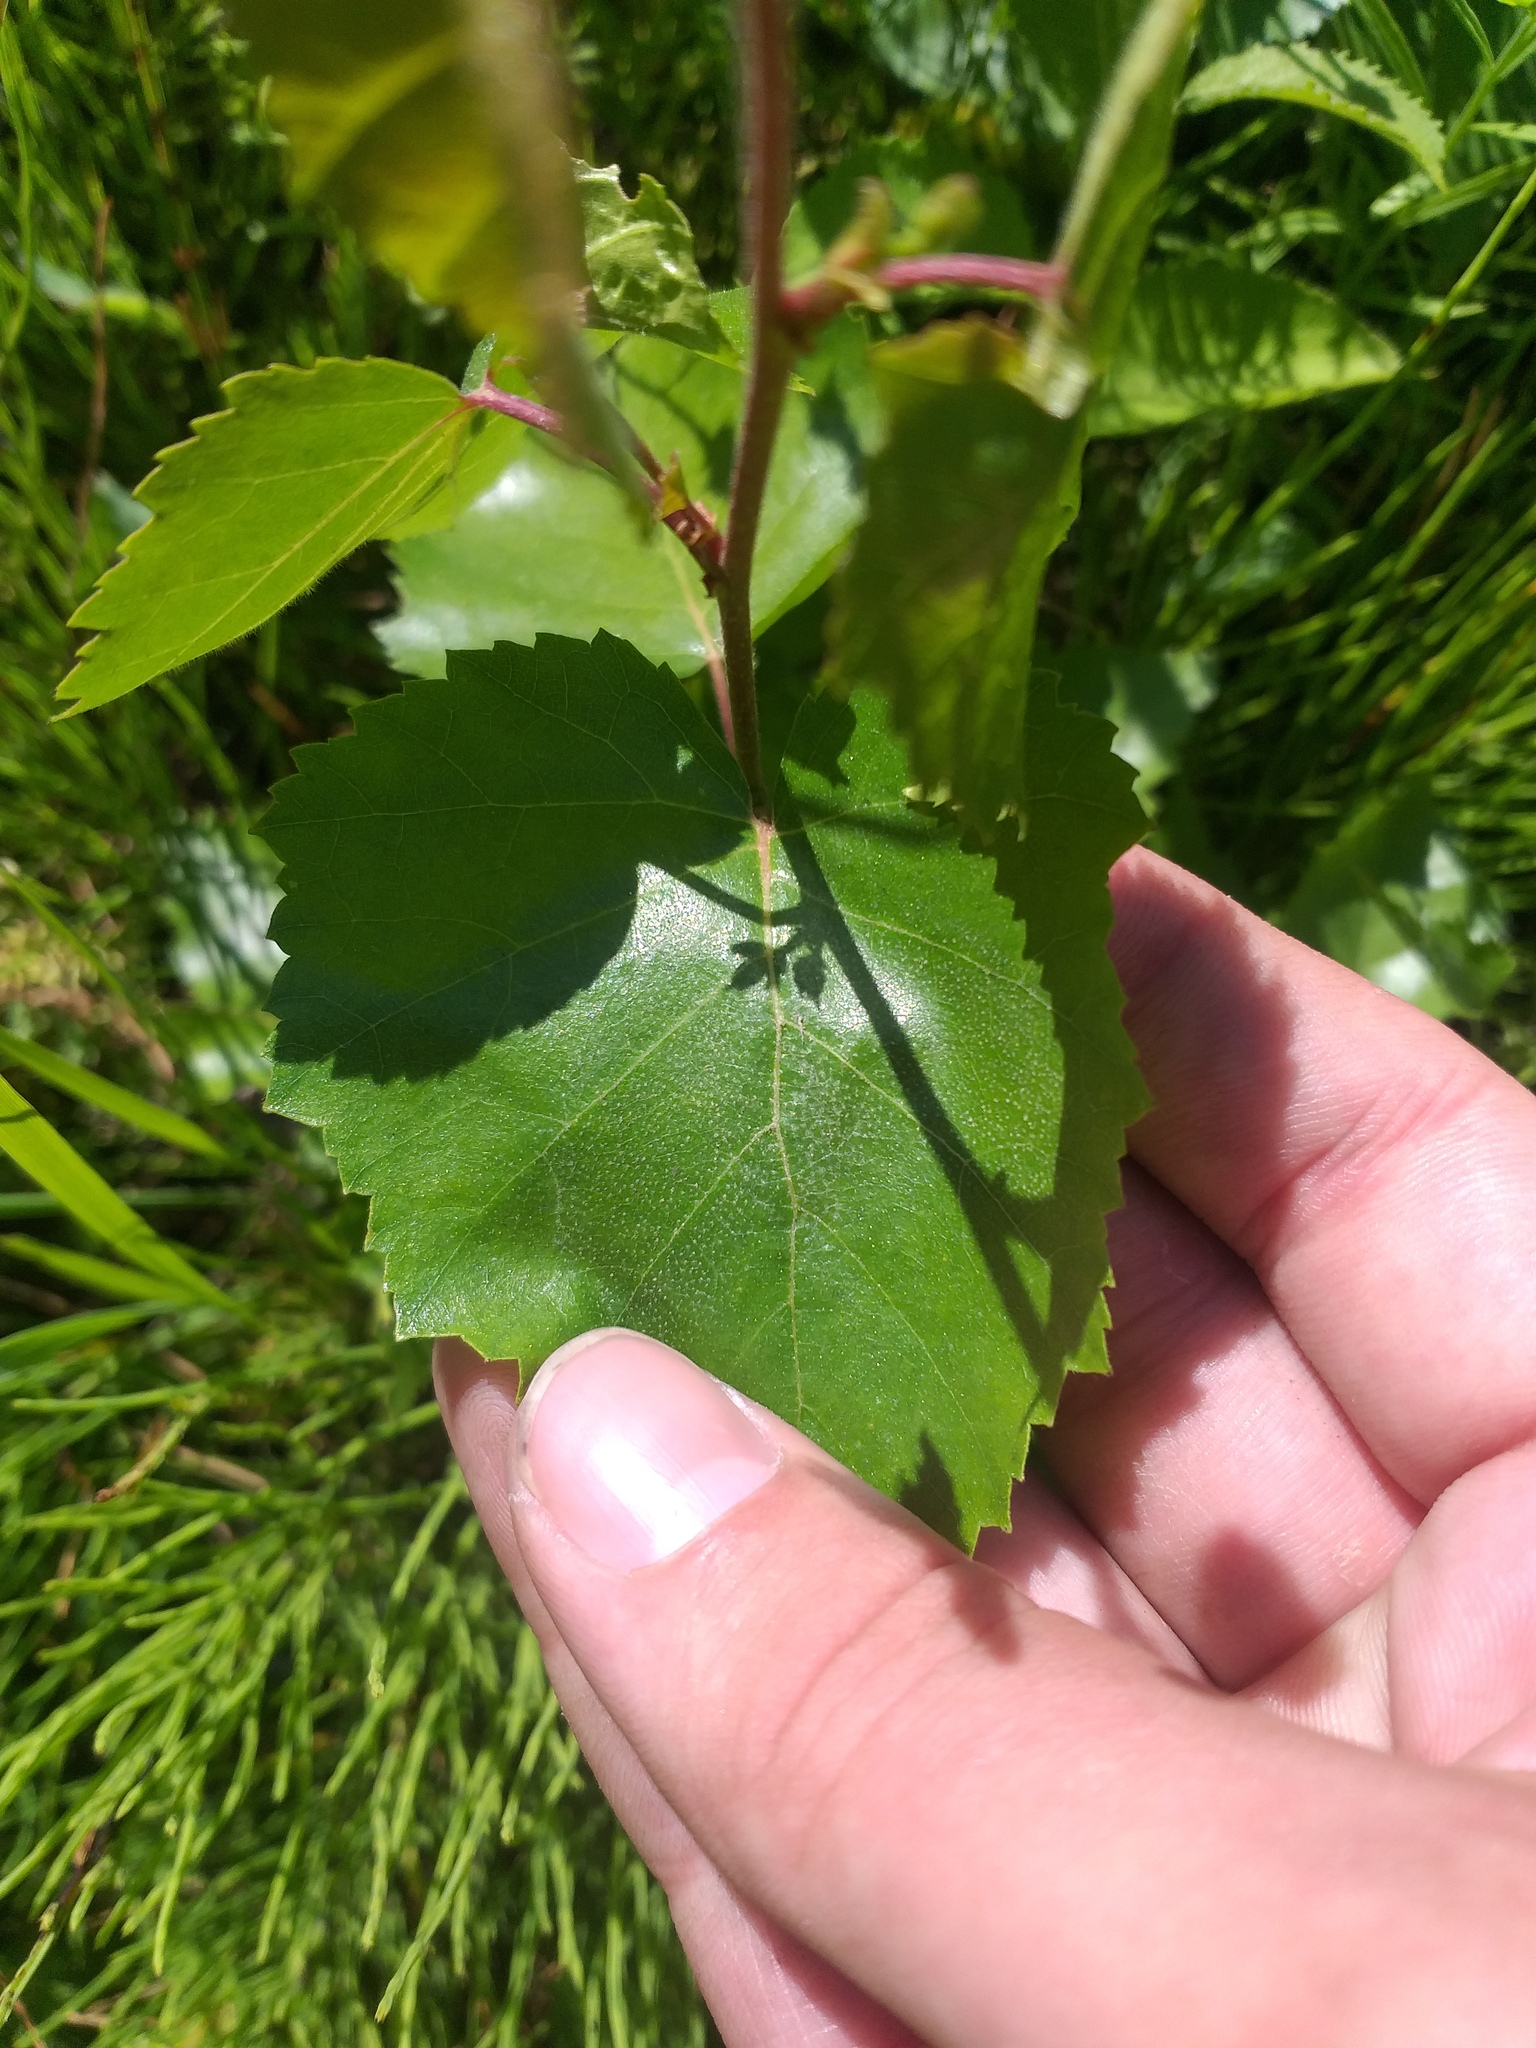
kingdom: Plantae
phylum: Tracheophyta
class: Magnoliopsida
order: Fagales
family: Betulaceae
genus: Betula
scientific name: Betula pendula
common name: Silver birch
